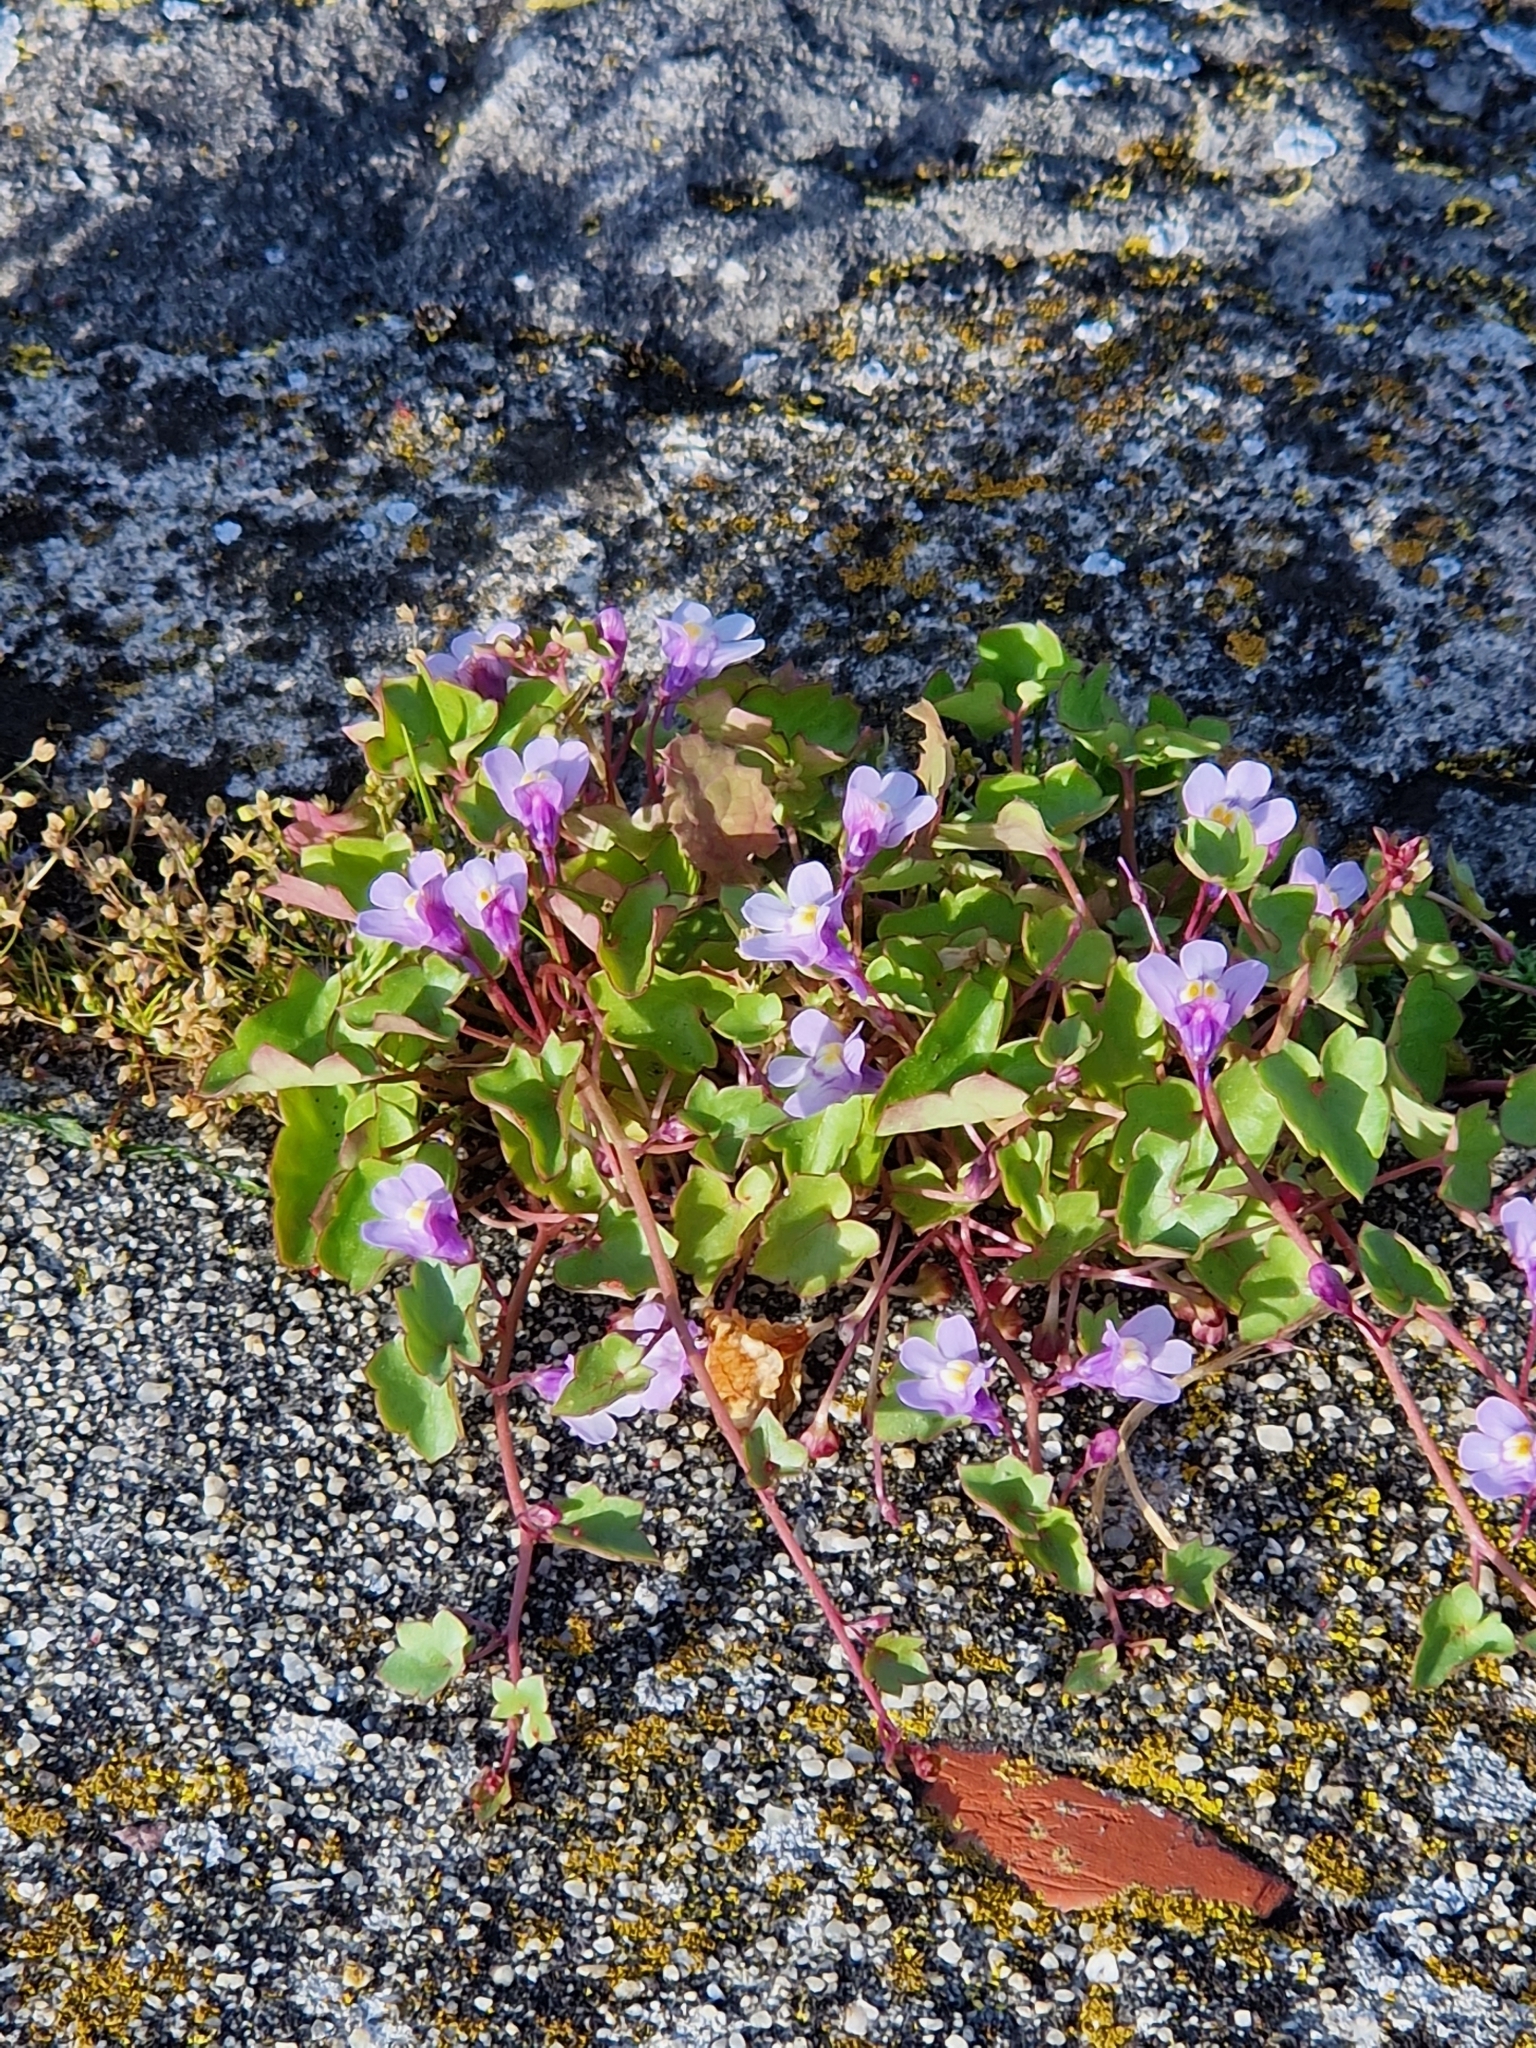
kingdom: Plantae
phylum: Tracheophyta
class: Magnoliopsida
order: Lamiales
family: Plantaginaceae
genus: Cymbalaria
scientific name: Cymbalaria muralis
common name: Ivy-leaved toadflax
